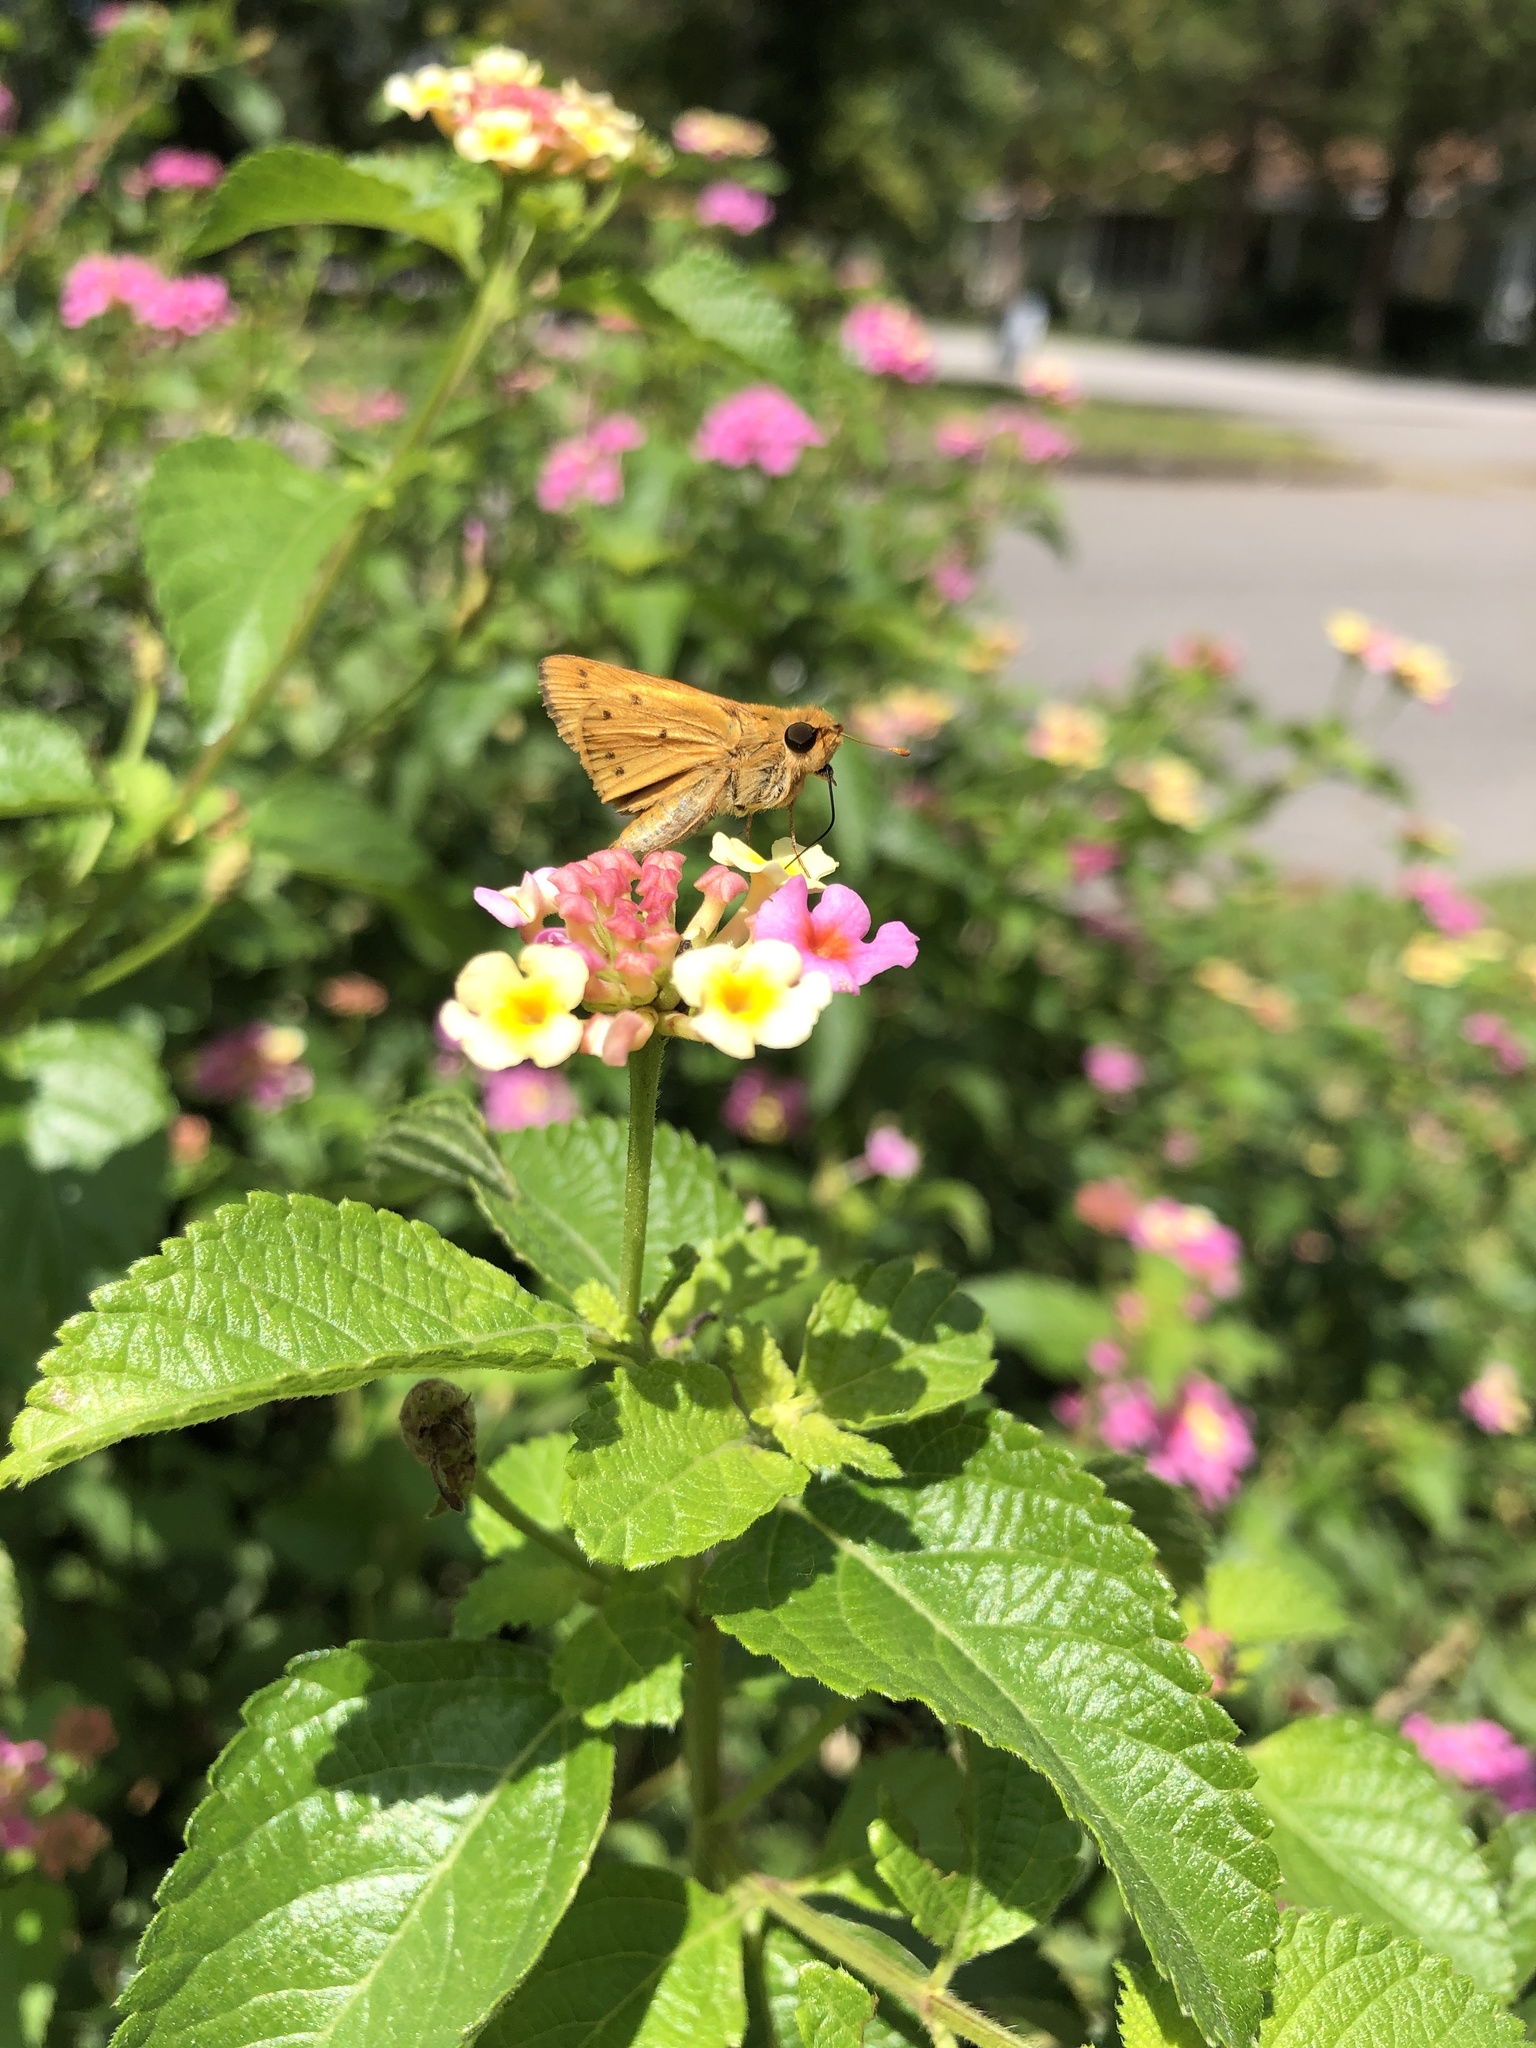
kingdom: Animalia
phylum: Arthropoda
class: Insecta
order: Lepidoptera
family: Hesperiidae
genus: Hylephila
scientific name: Hylephila phyleus
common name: Fiery skipper
